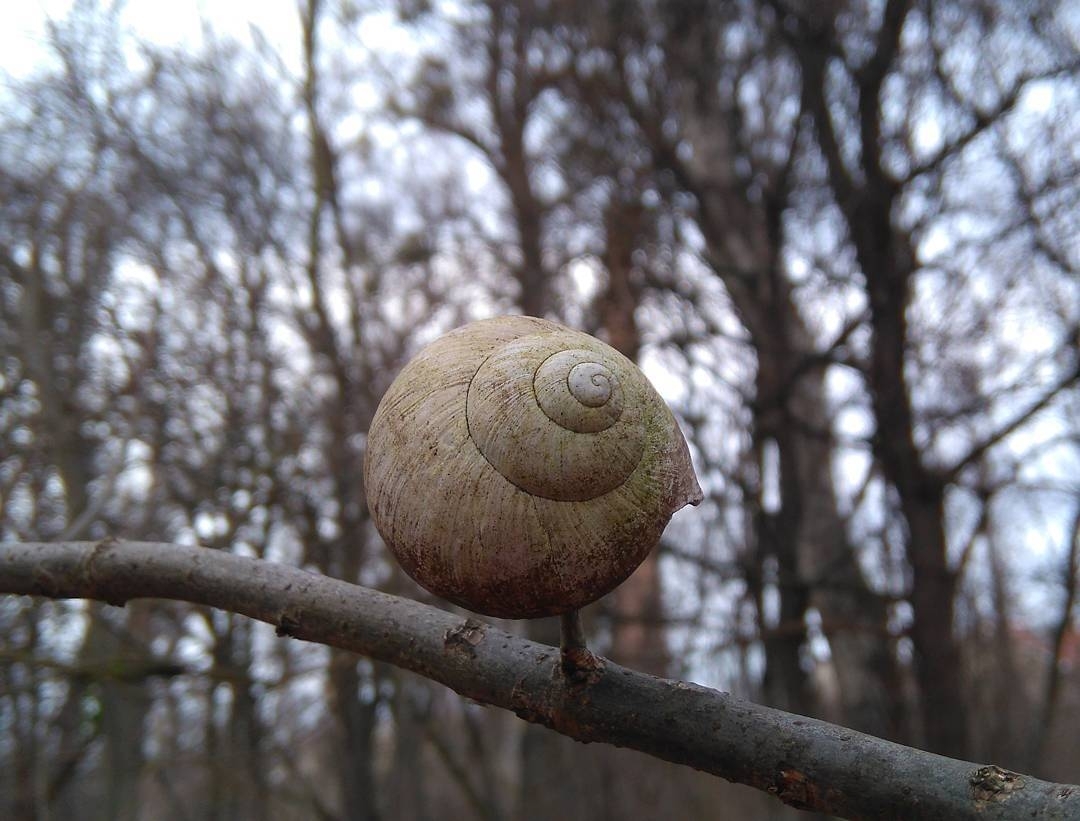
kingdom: Animalia
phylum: Mollusca
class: Gastropoda
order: Stylommatophora
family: Helicidae
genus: Helix
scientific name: Helix pomatia
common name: Roman snail
